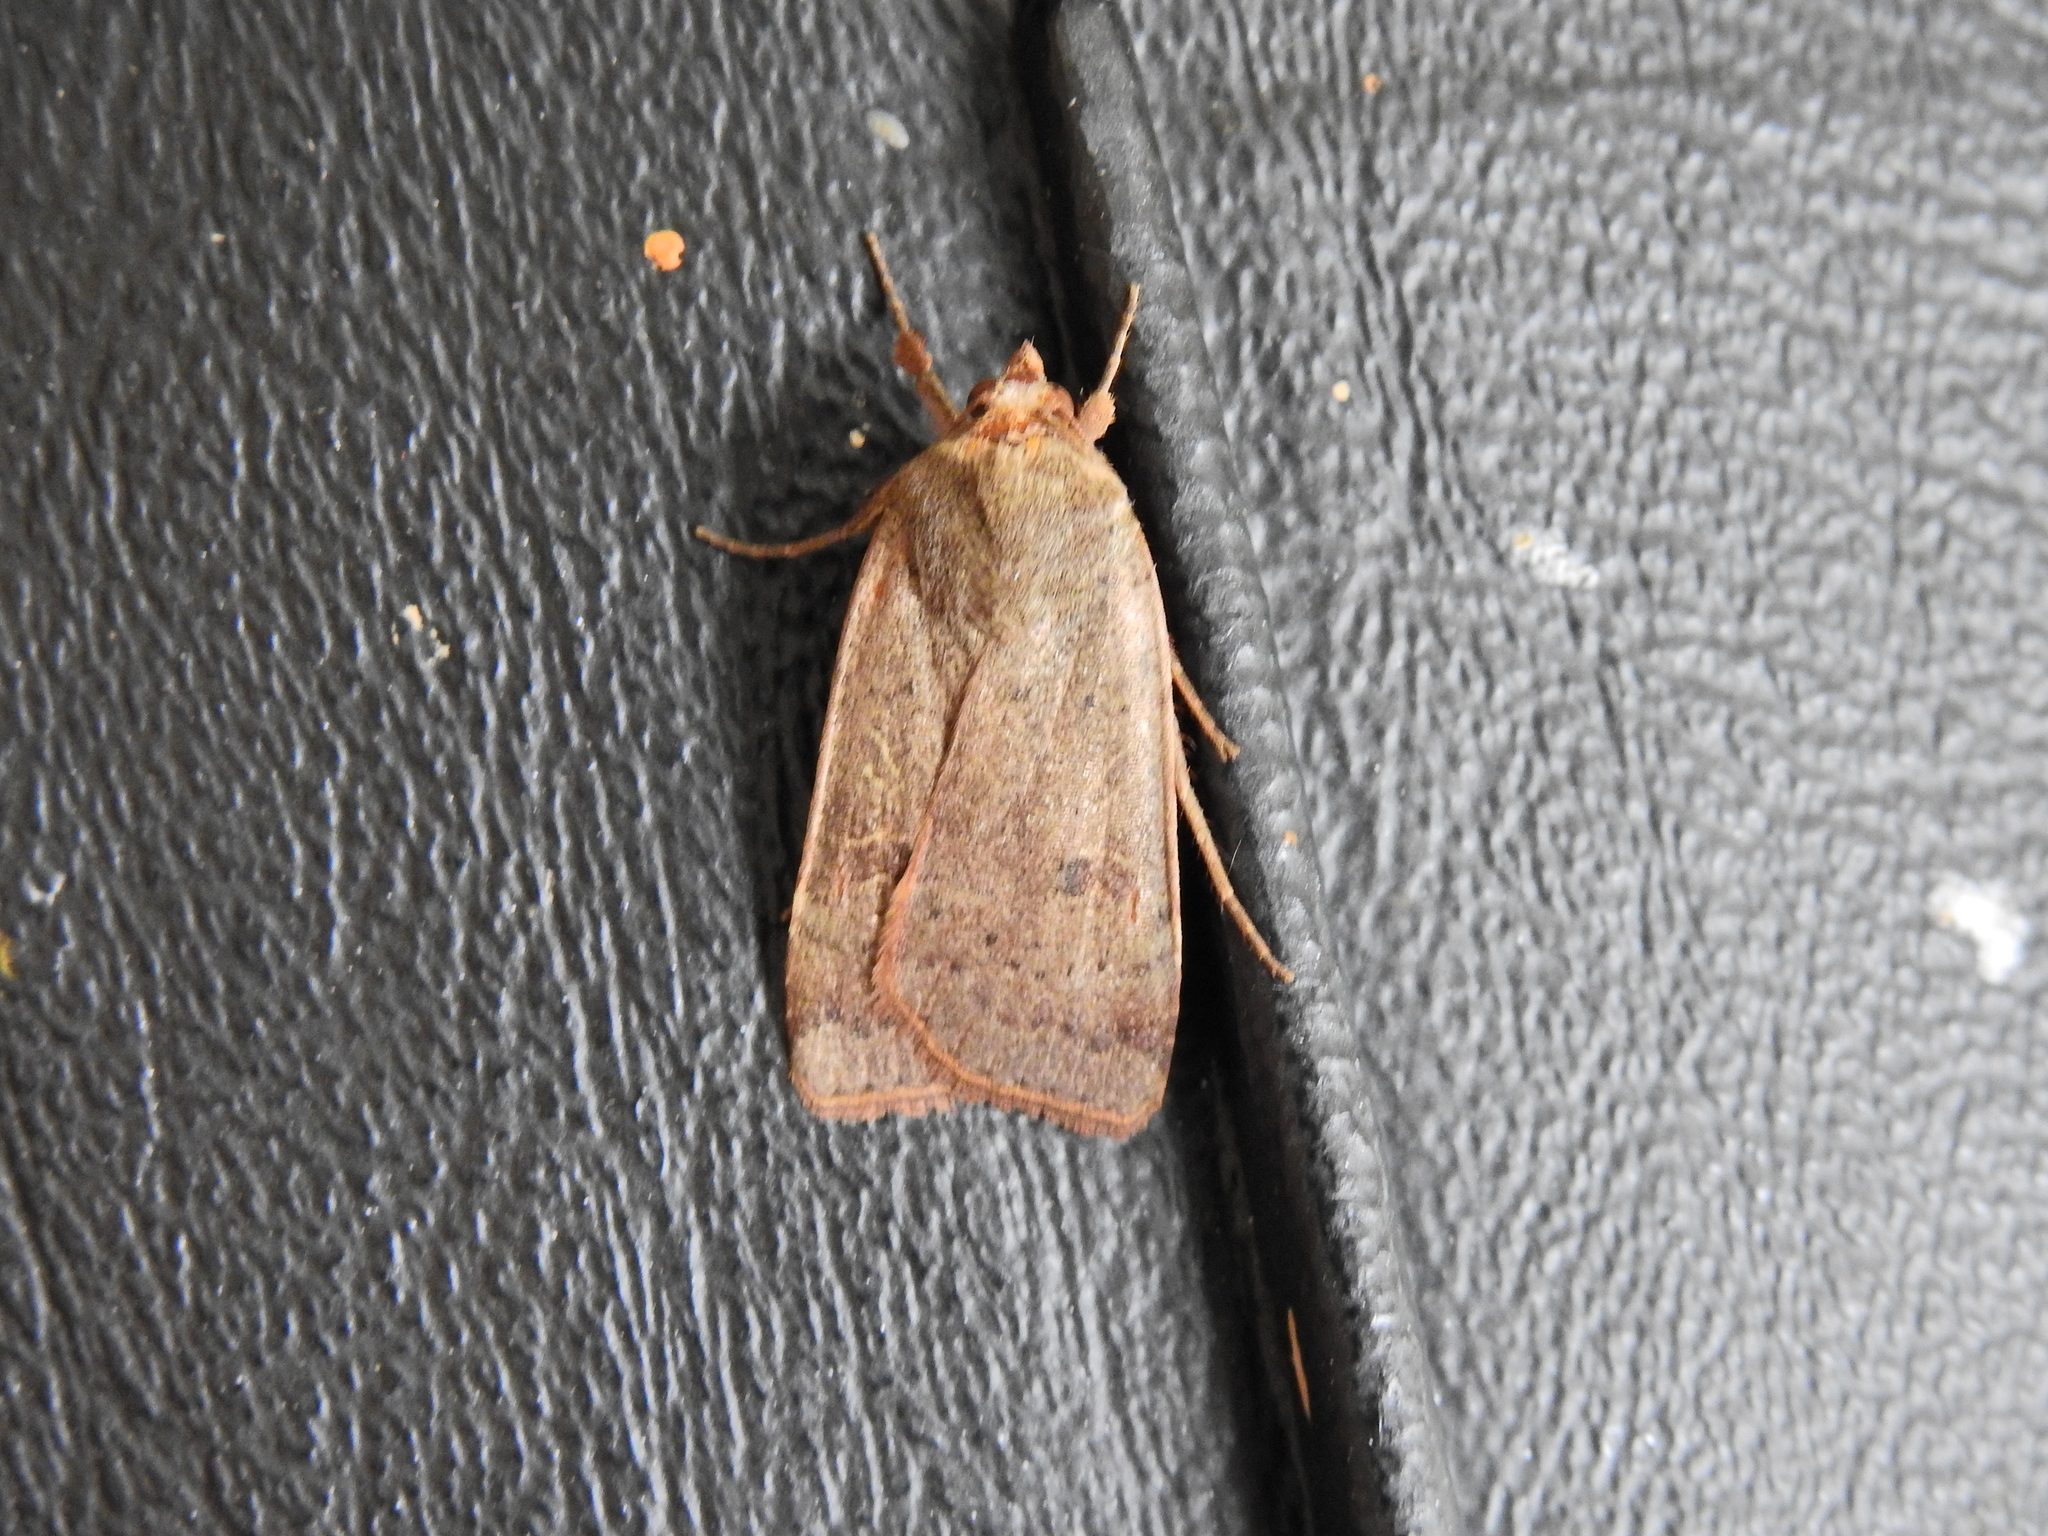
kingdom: Animalia
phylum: Arthropoda
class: Insecta
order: Lepidoptera
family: Noctuidae
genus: Noctua
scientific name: Noctua comes
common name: Lesser yellow underwing
